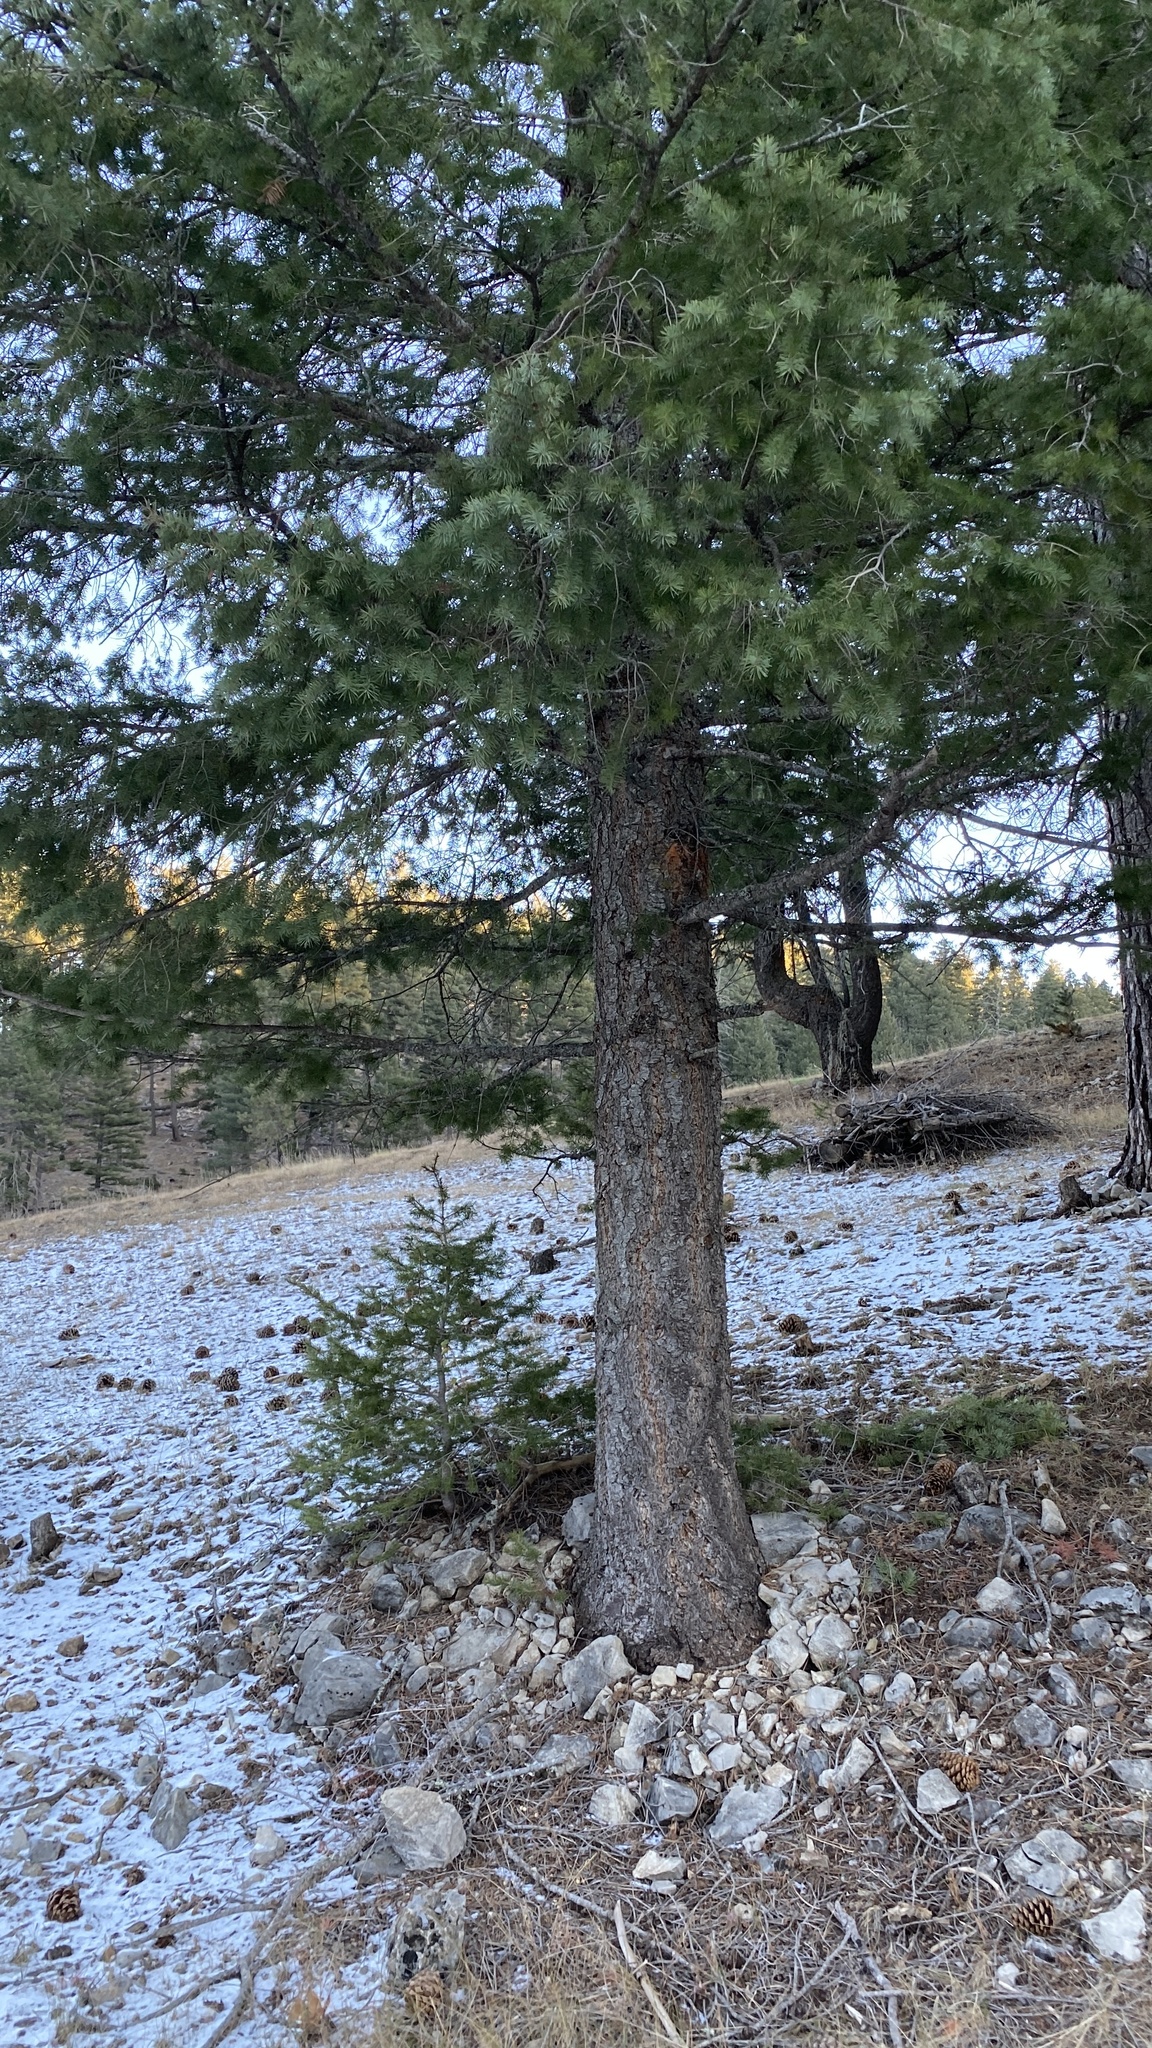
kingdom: Plantae
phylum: Tracheophyta
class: Pinopsida
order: Pinales
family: Pinaceae
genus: Pseudotsuga
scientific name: Pseudotsuga menziesii
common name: Douglas fir
